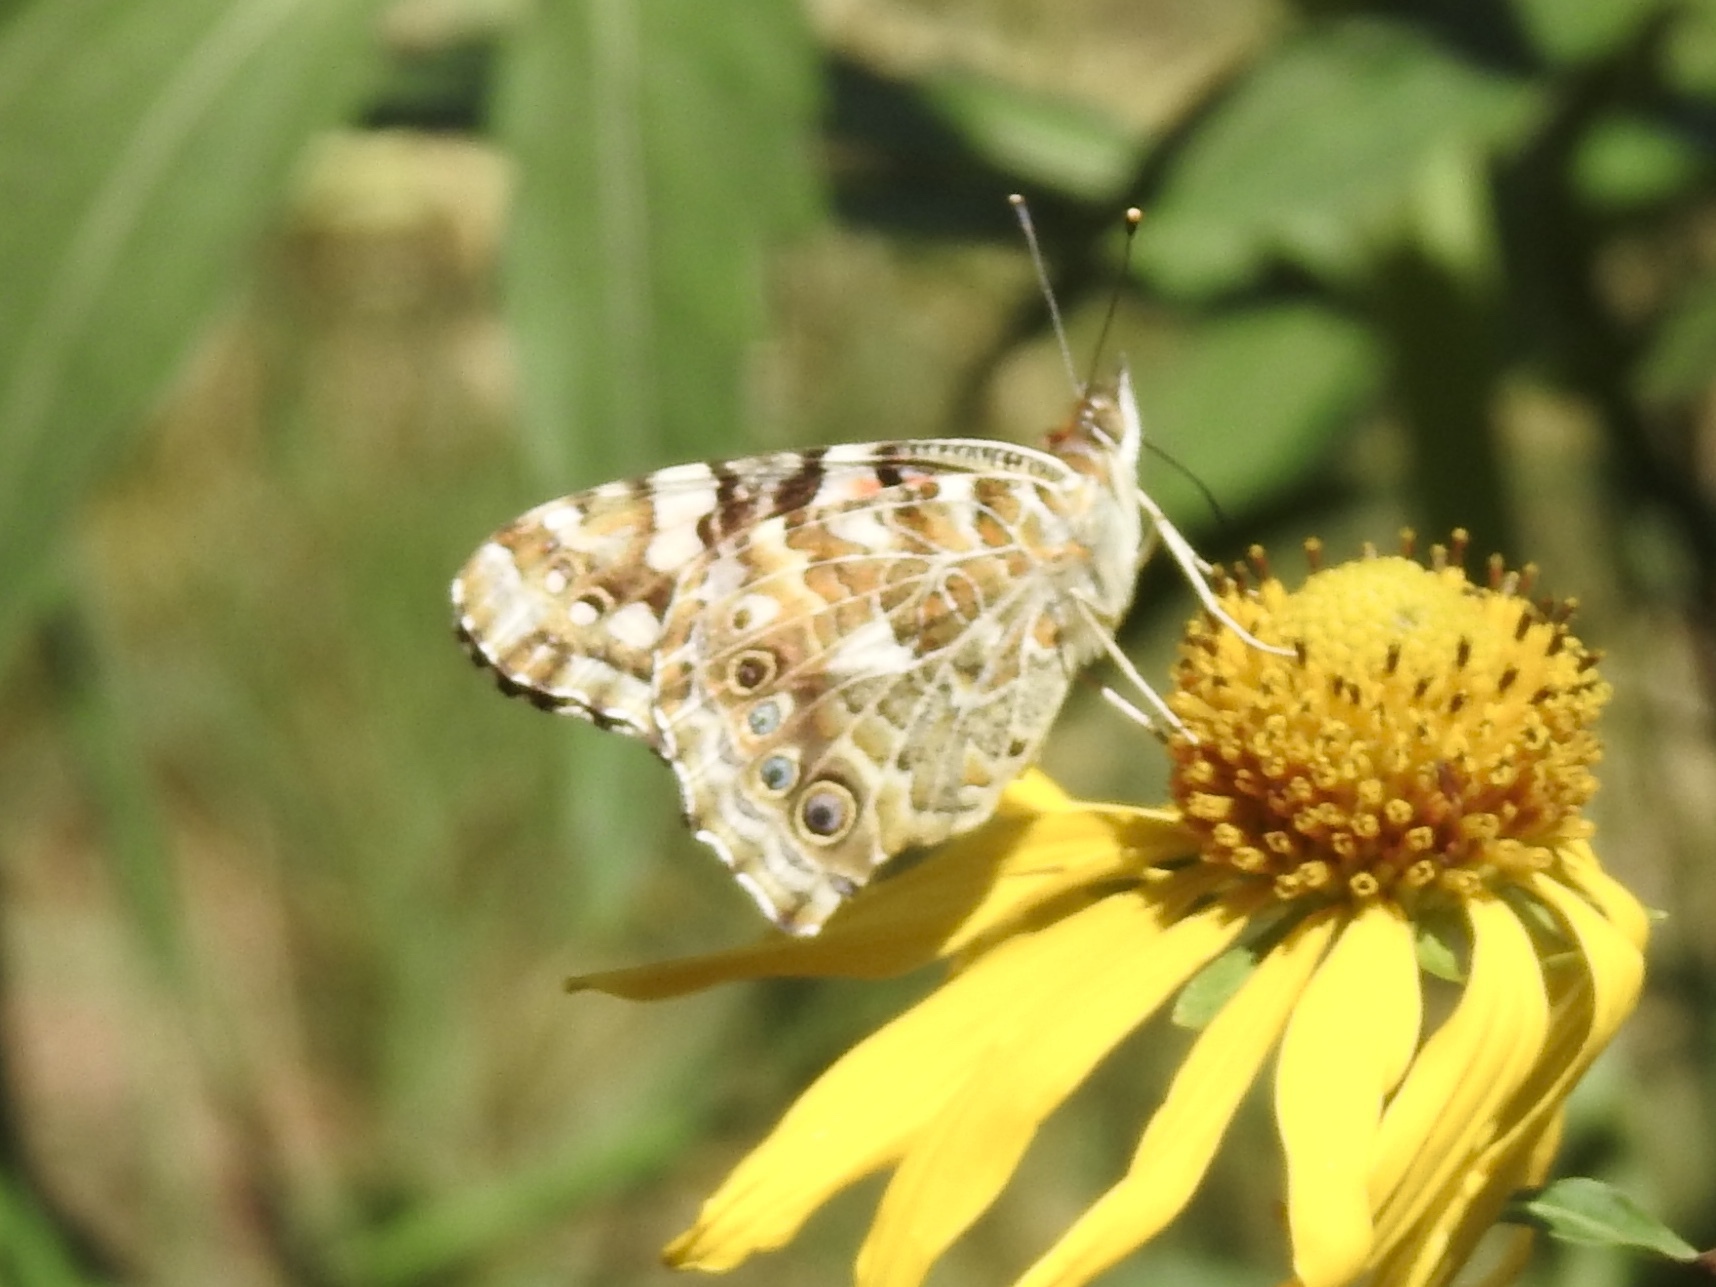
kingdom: Animalia
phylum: Arthropoda
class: Insecta
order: Lepidoptera
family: Nymphalidae
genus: Vanessa
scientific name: Vanessa cardui
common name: Painted lady
